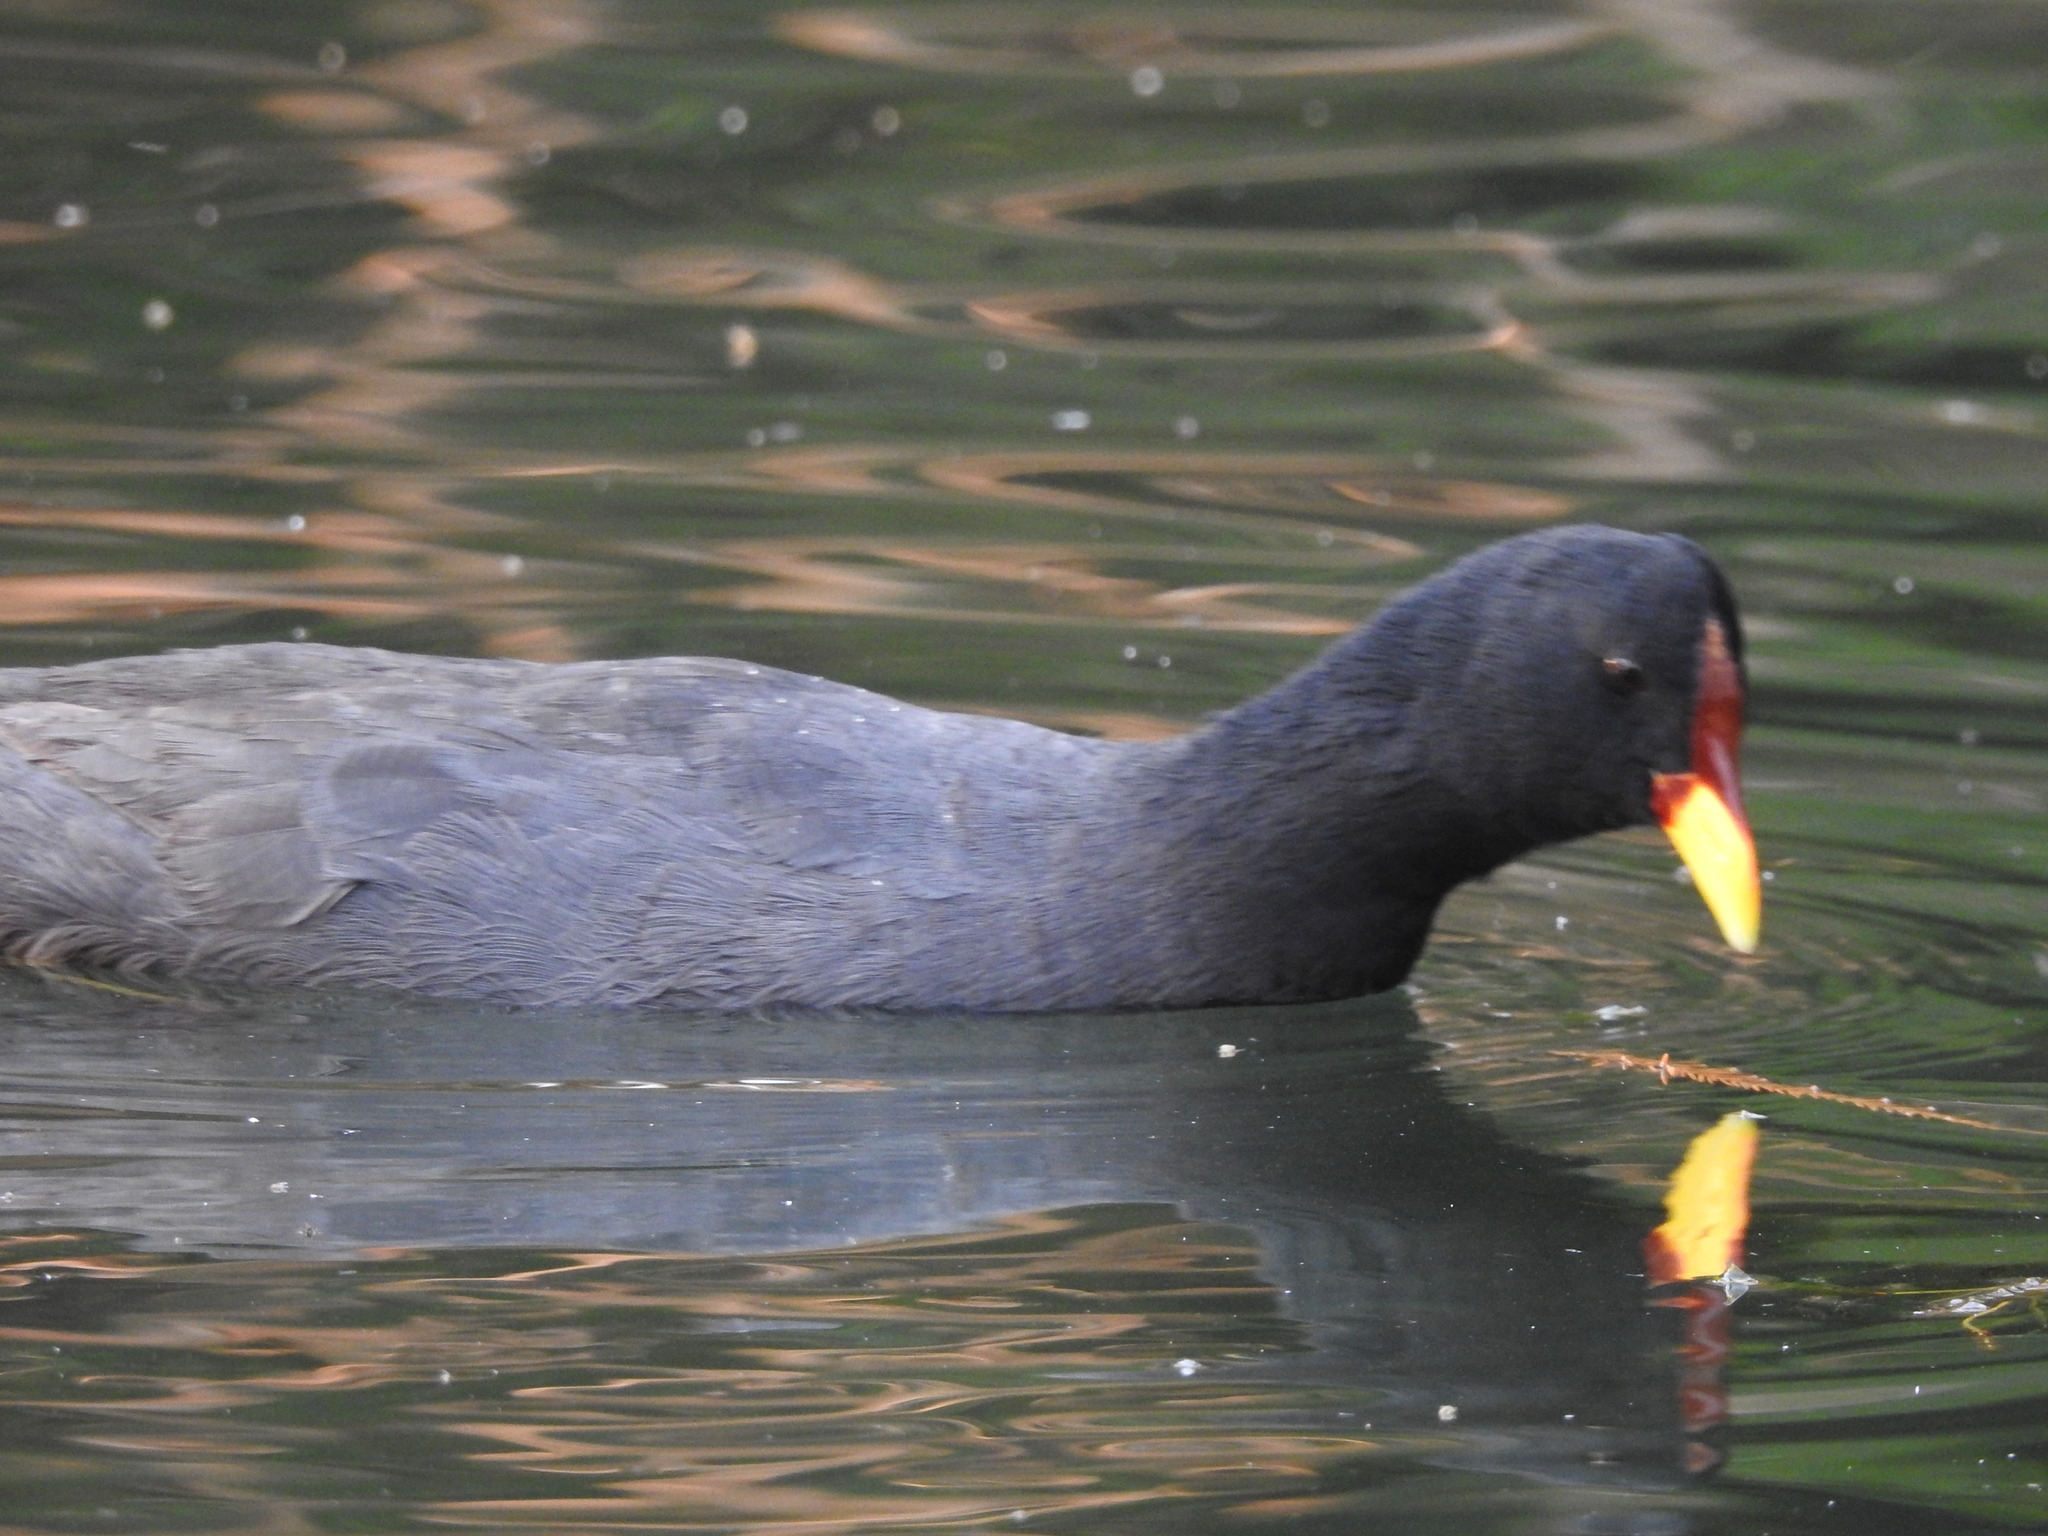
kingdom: Animalia
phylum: Chordata
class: Aves
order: Gruiformes
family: Rallidae
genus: Fulica
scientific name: Fulica rufifrons
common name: Red-fronted coot
